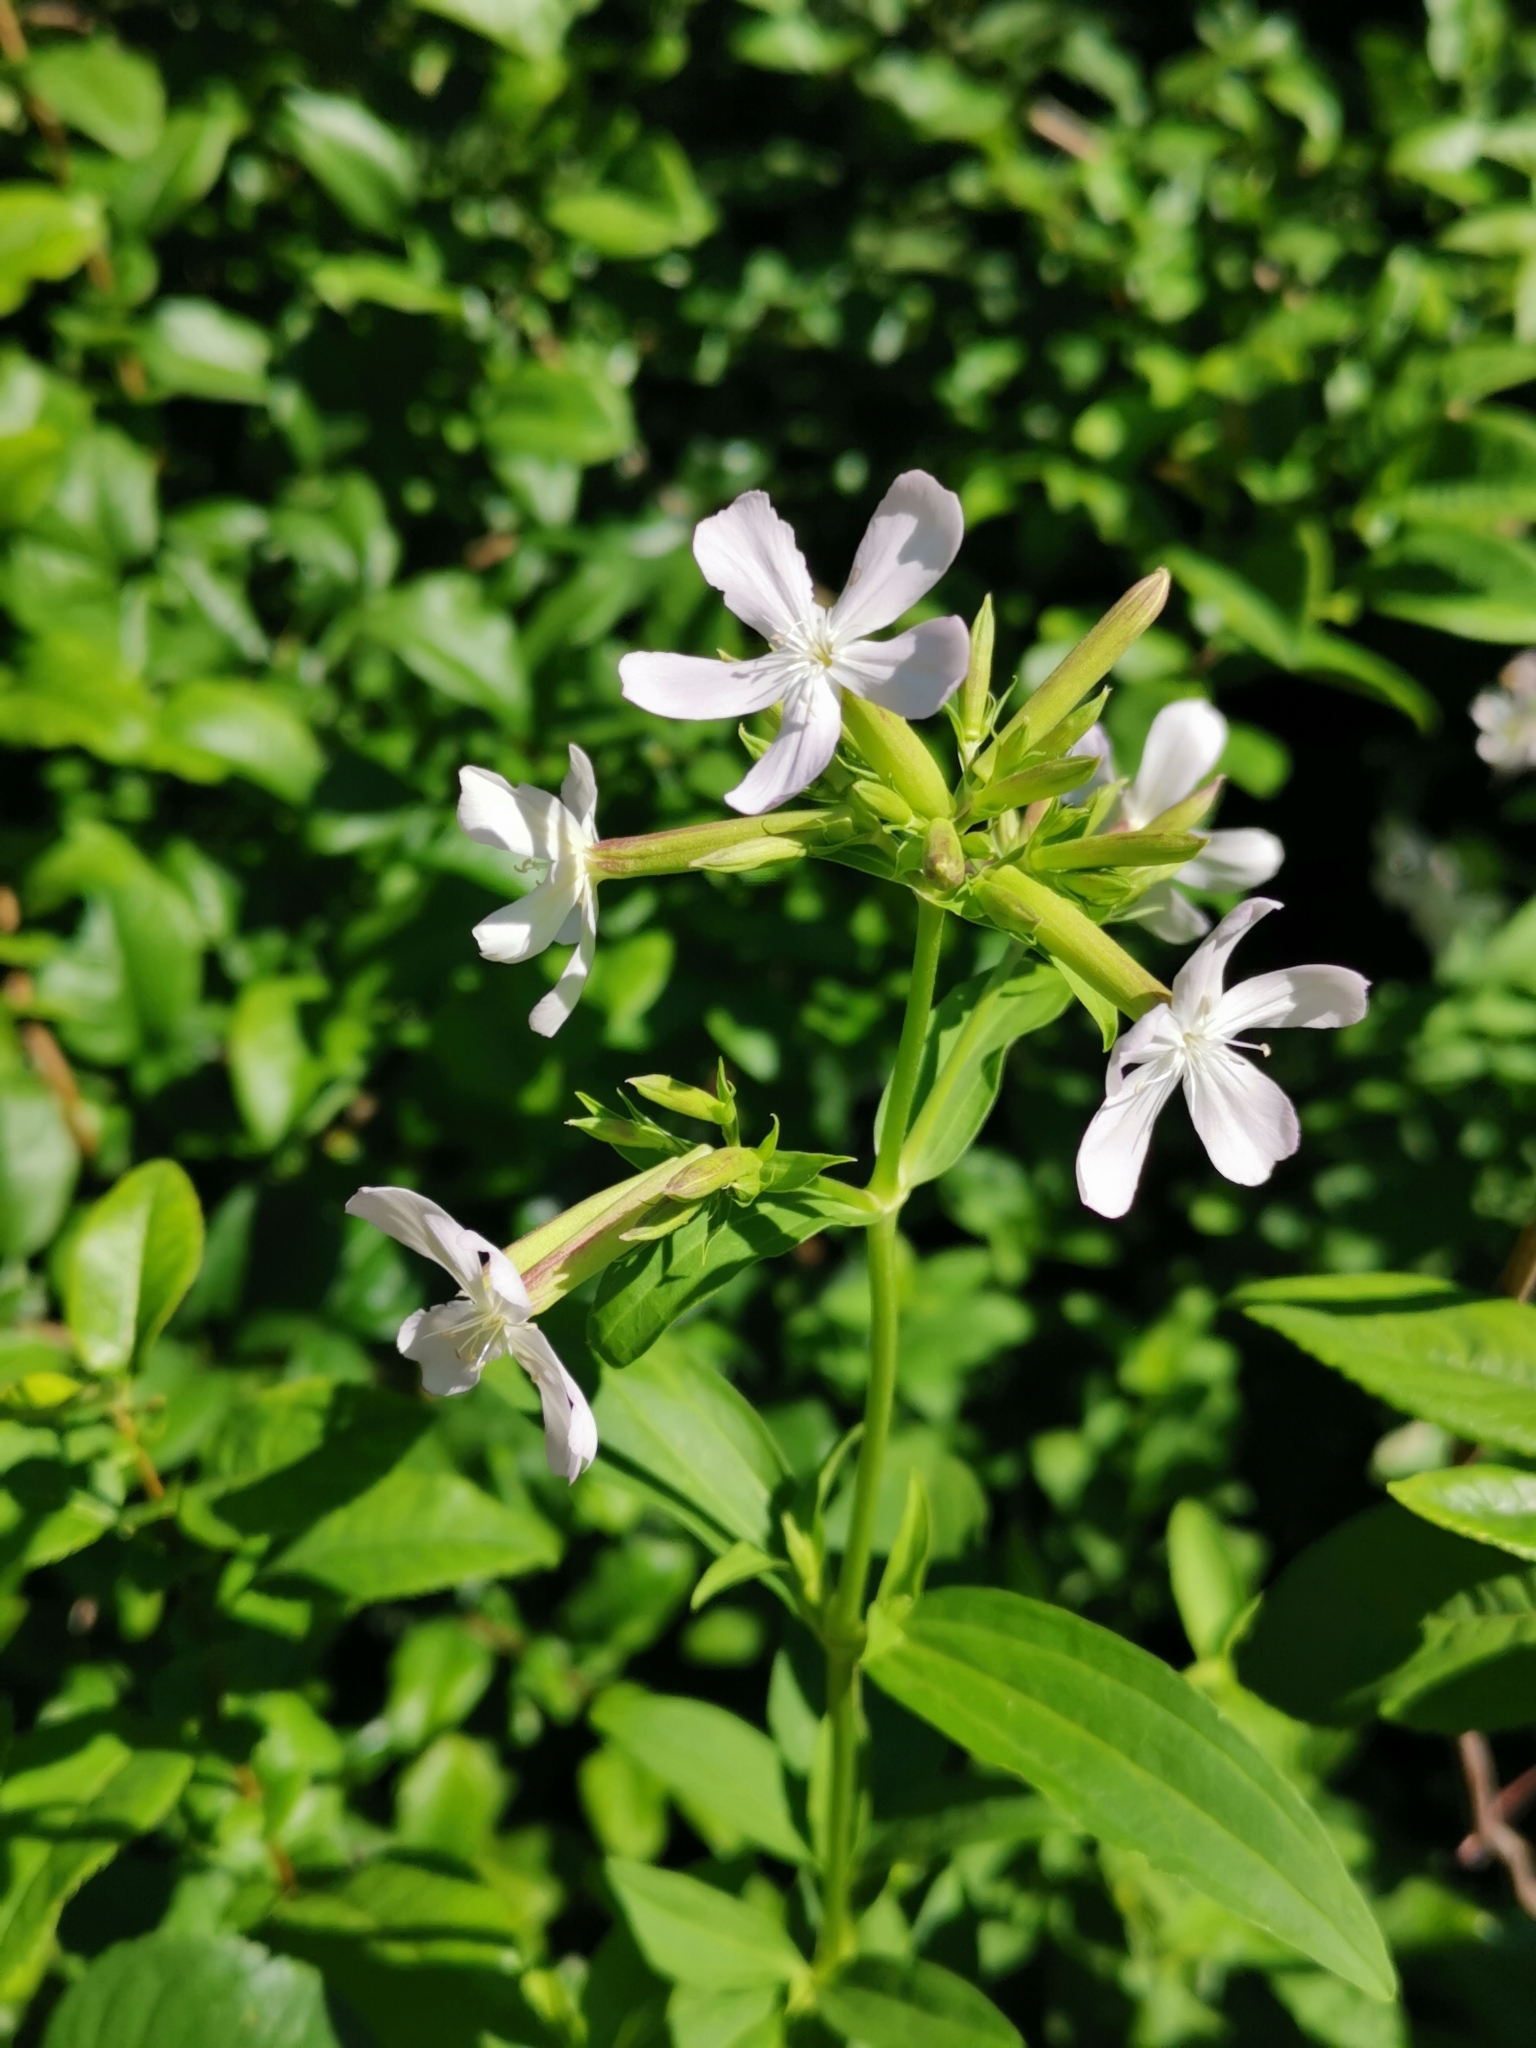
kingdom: Plantae
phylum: Tracheophyta
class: Magnoliopsida
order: Caryophyllales
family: Caryophyllaceae
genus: Saponaria
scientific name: Saponaria officinalis
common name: Soapwort
